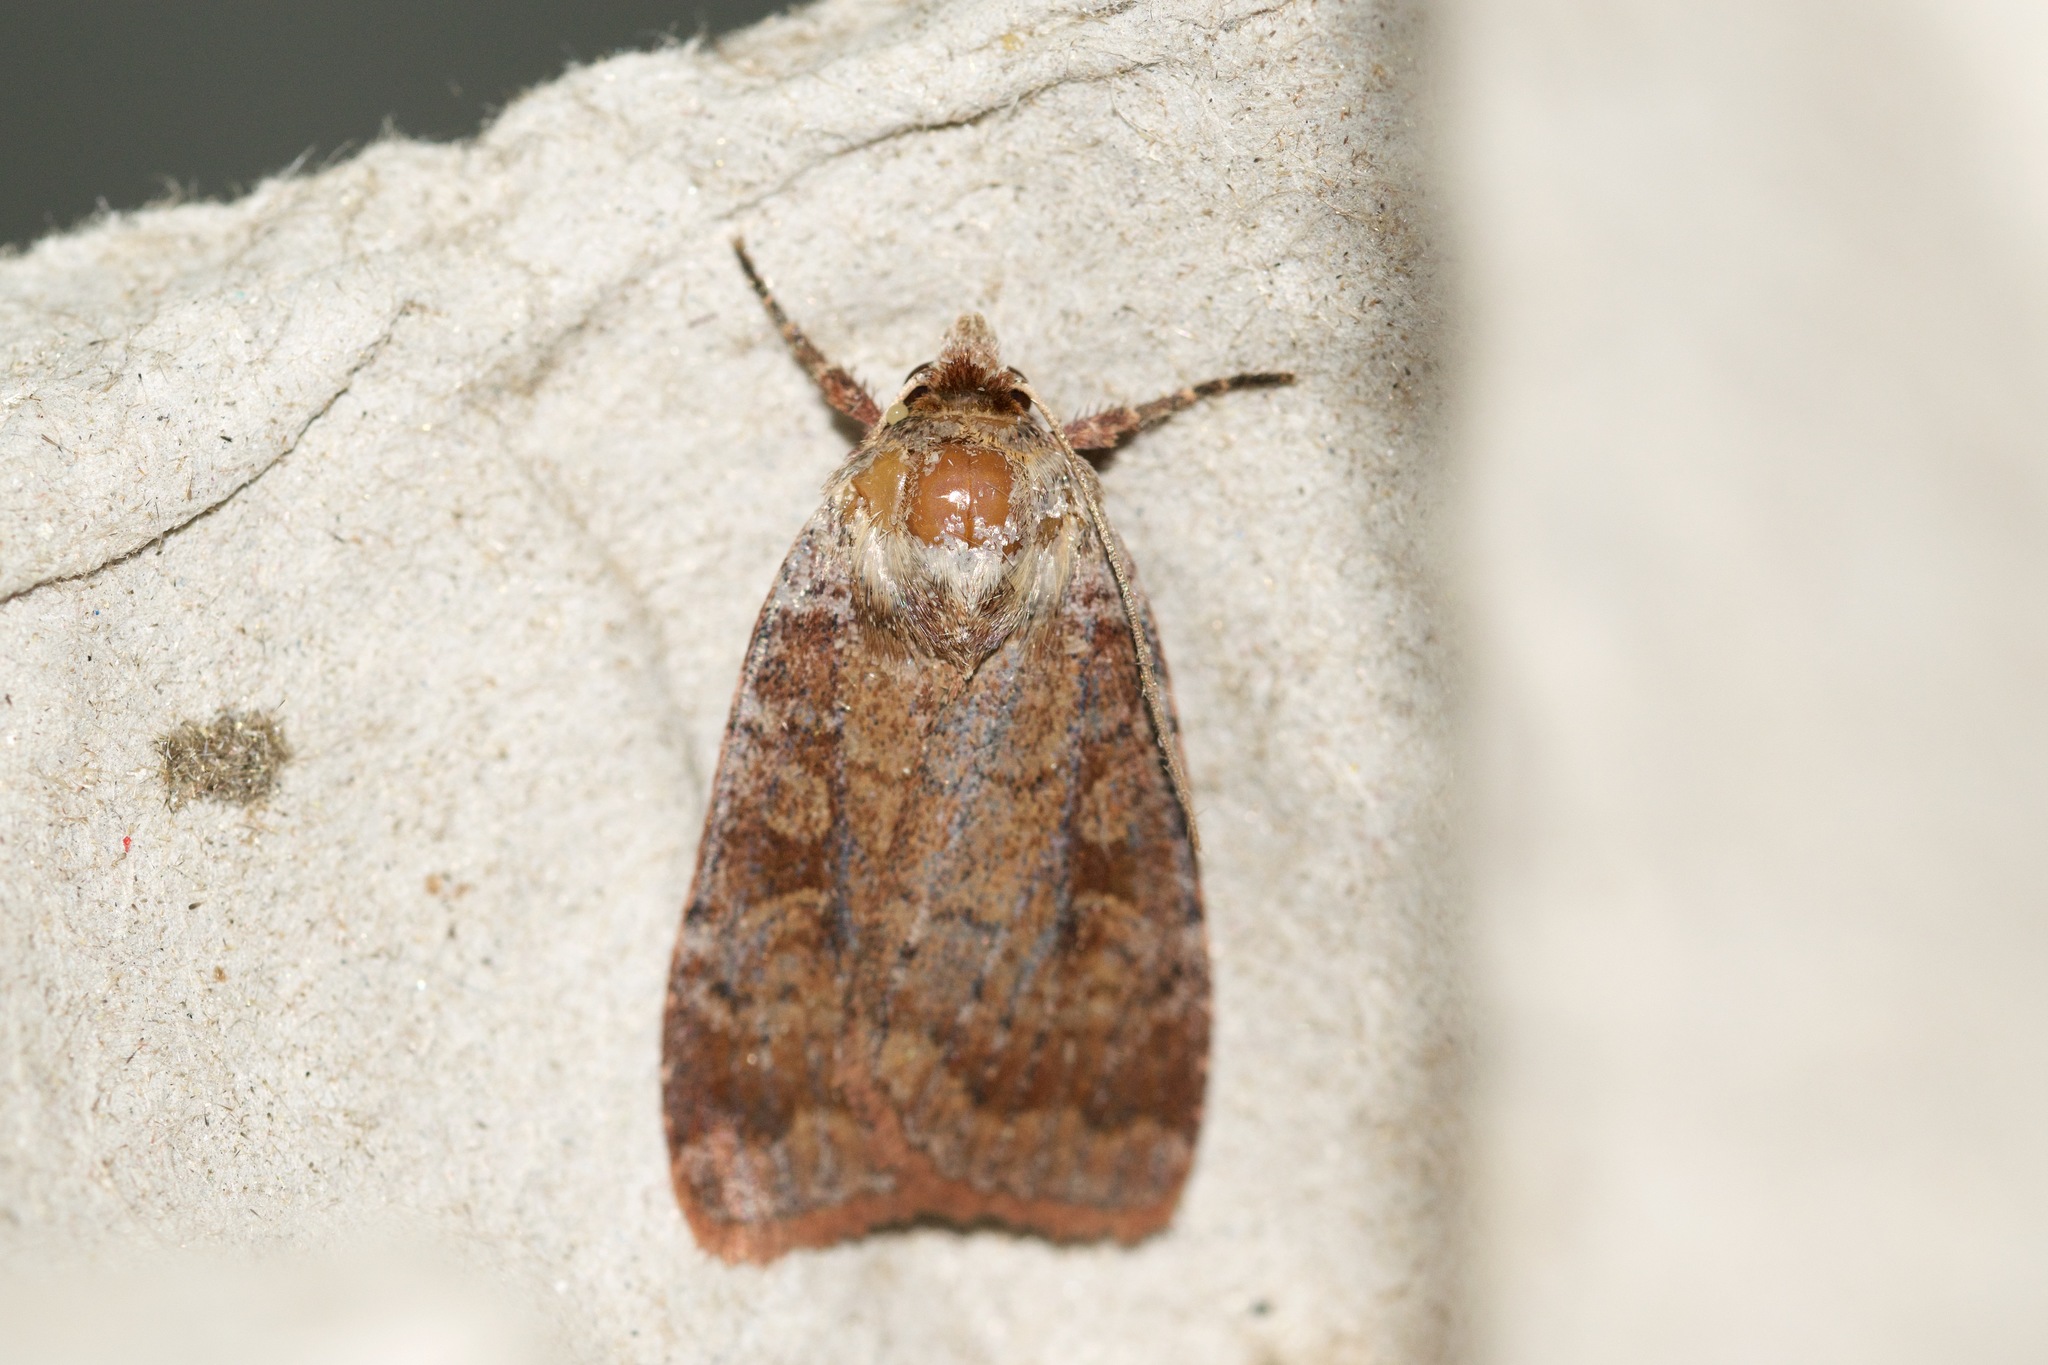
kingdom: Animalia
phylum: Arthropoda
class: Insecta
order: Lepidoptera
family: Noctuidae
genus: Lycophotia
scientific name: Lycophotia phyllophora
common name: Lycophotia moth
